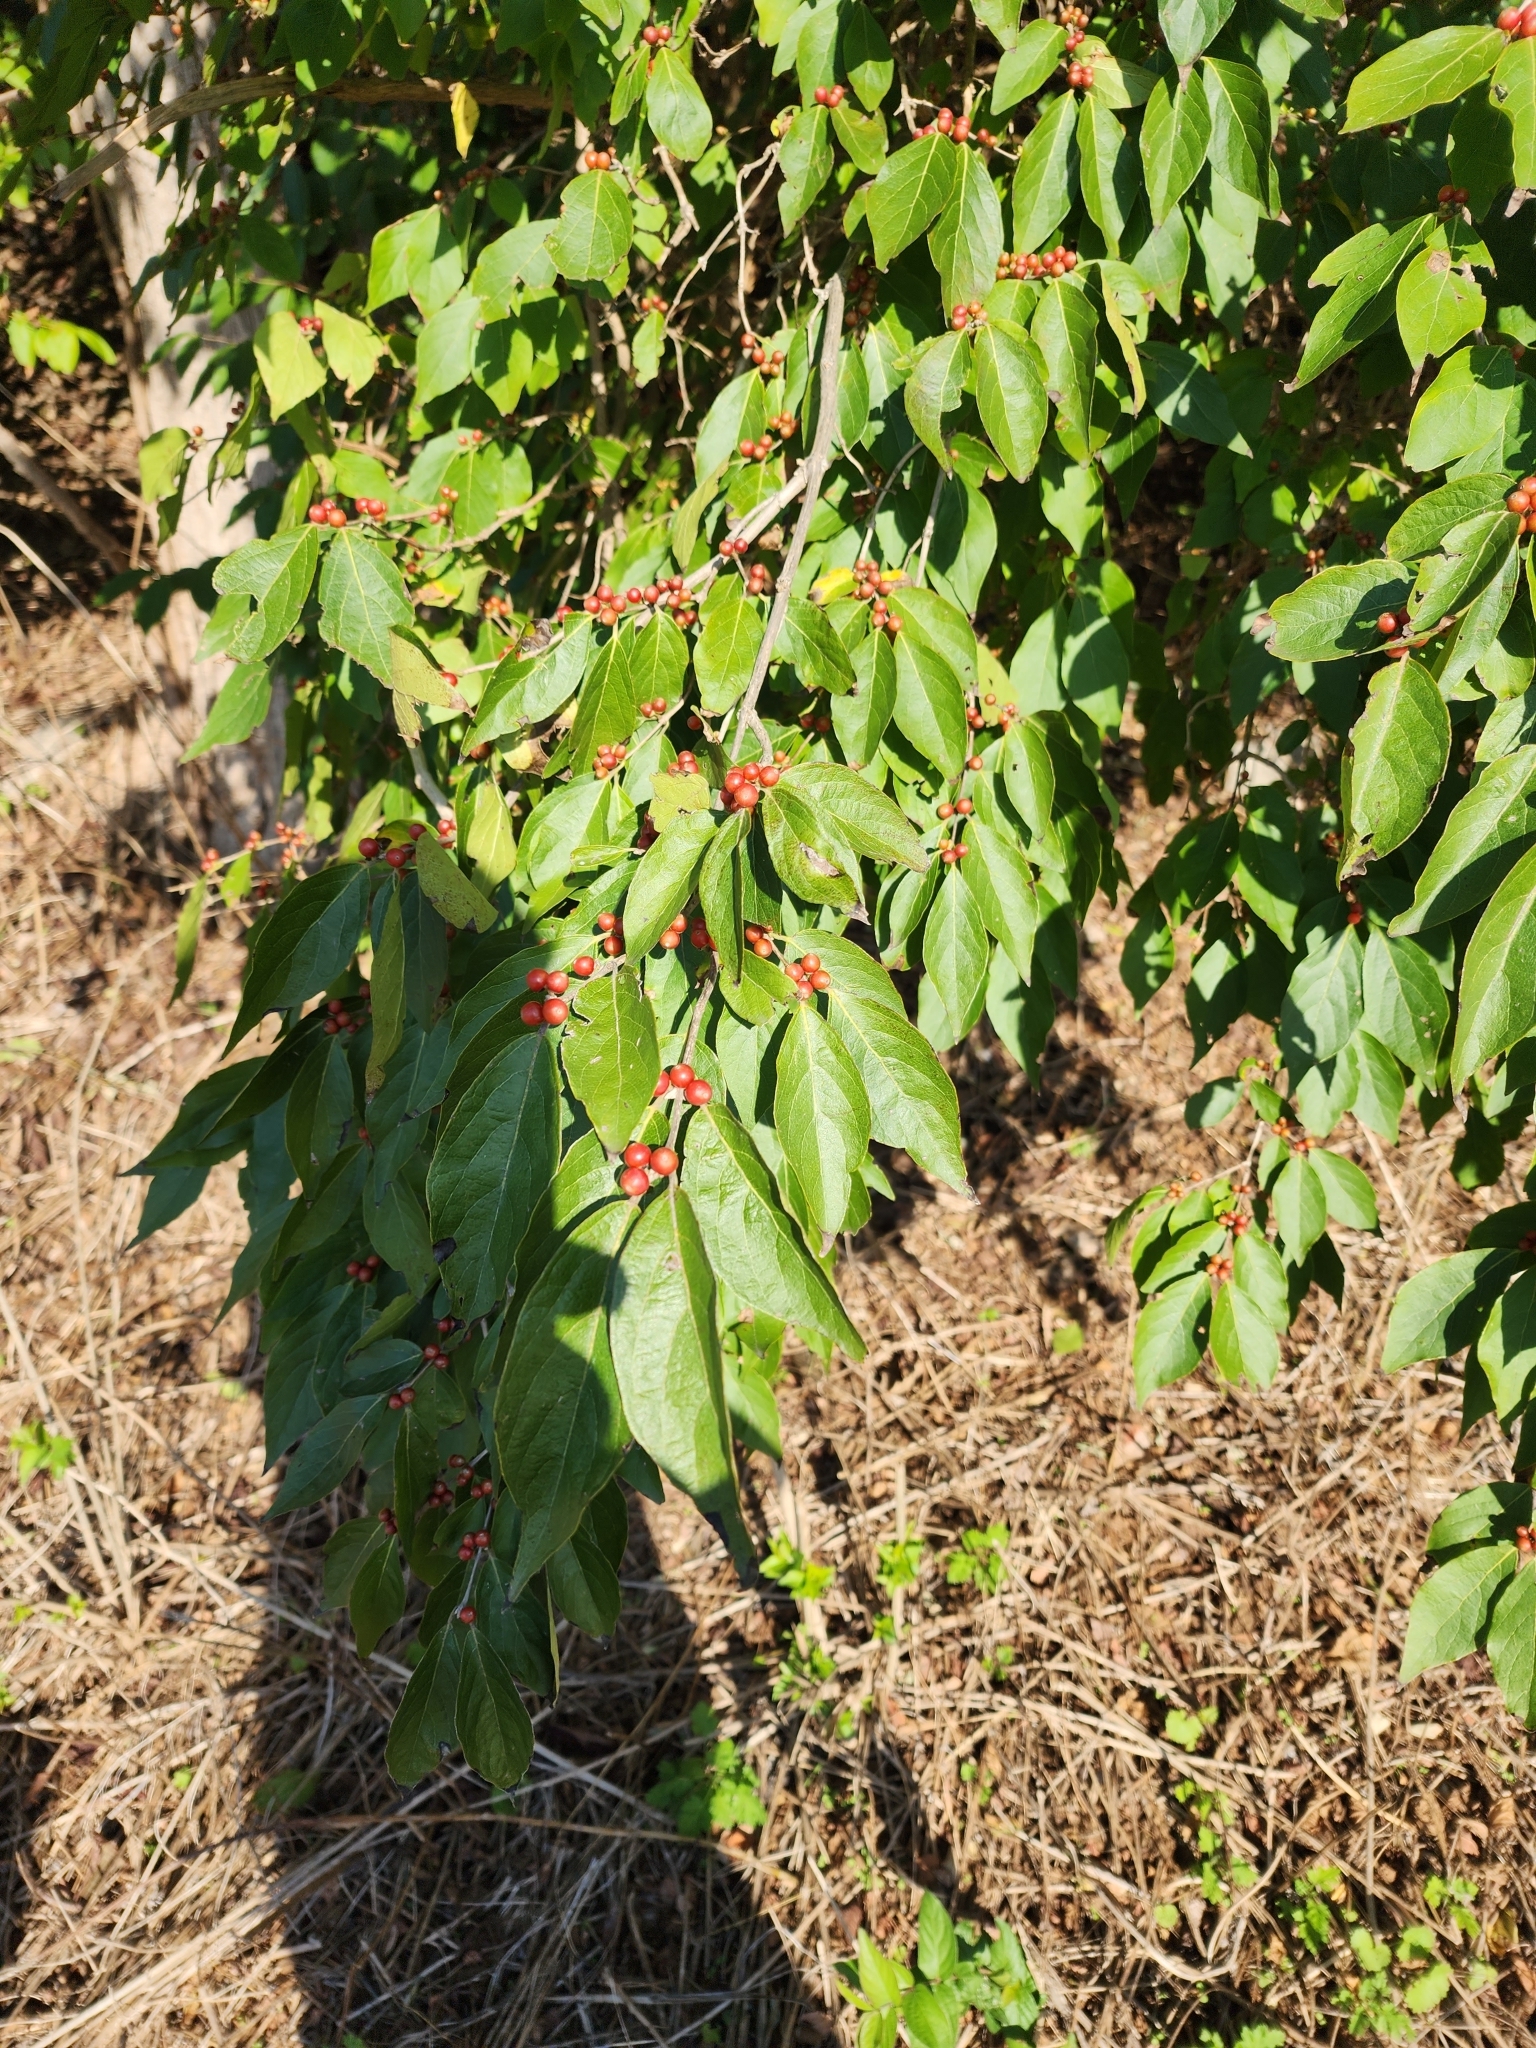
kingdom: Plantae
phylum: Tracheophyta
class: Magnoliopsida
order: Dipsacales
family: Caprifoliaceae
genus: Lonicera
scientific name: Lonicera maackii
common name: Amur honeysuckle
